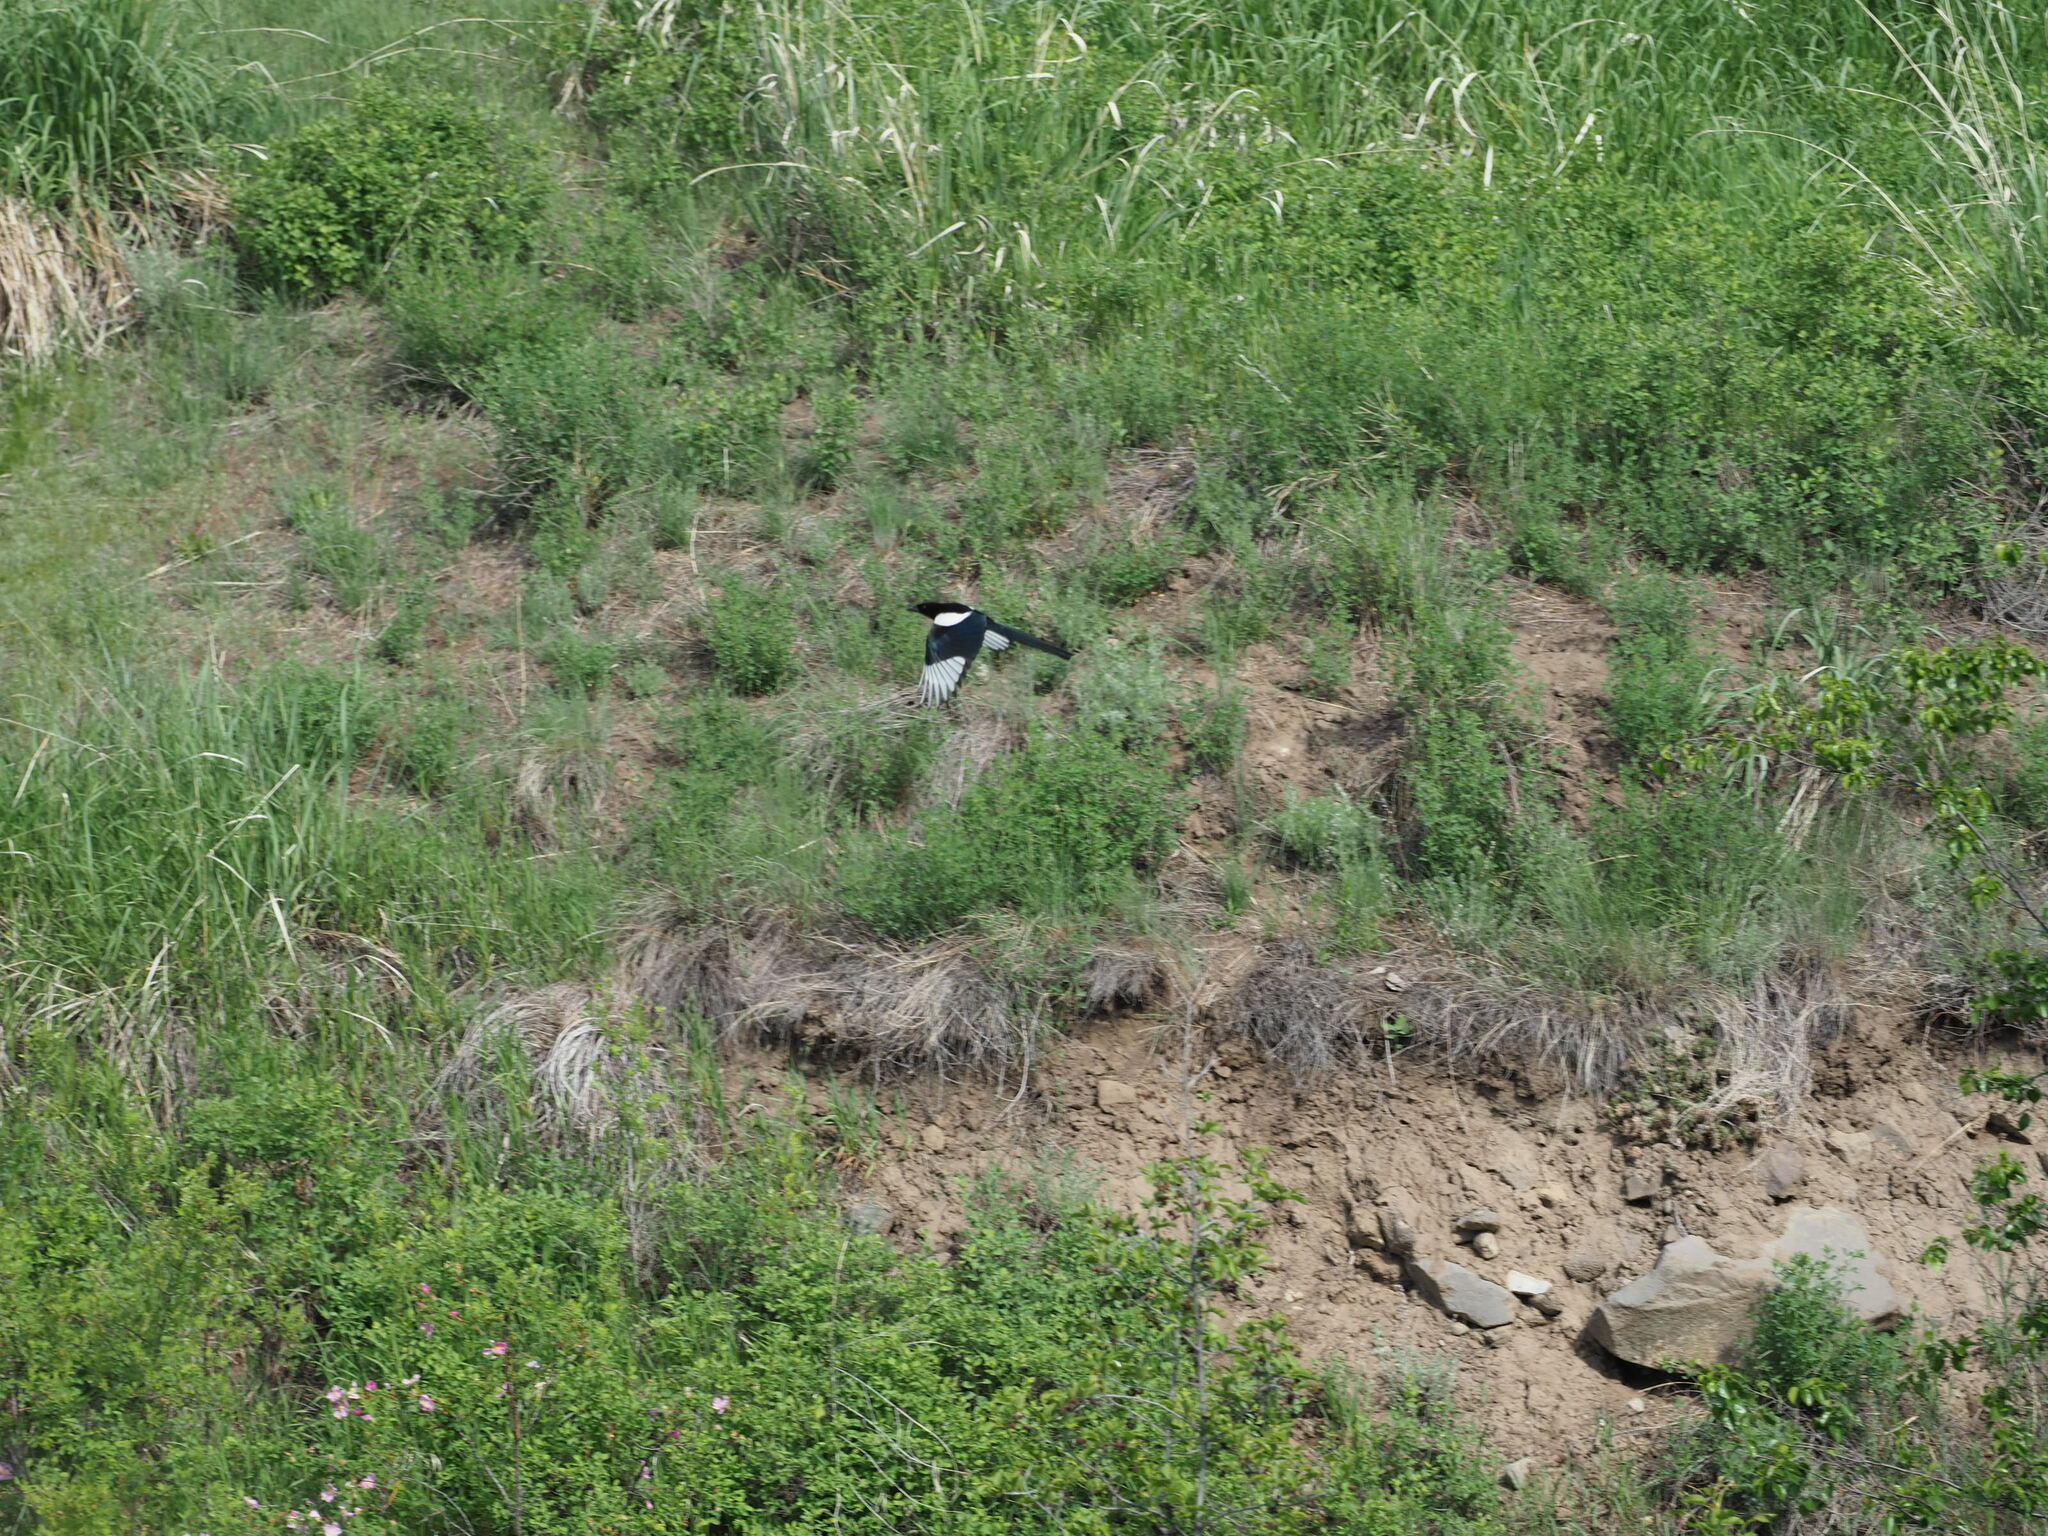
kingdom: Animalia
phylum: Chordata
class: Aves
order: Passeriformes
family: Corvidae
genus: Pica
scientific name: Pica hudsonia
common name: Black-billed magpie
